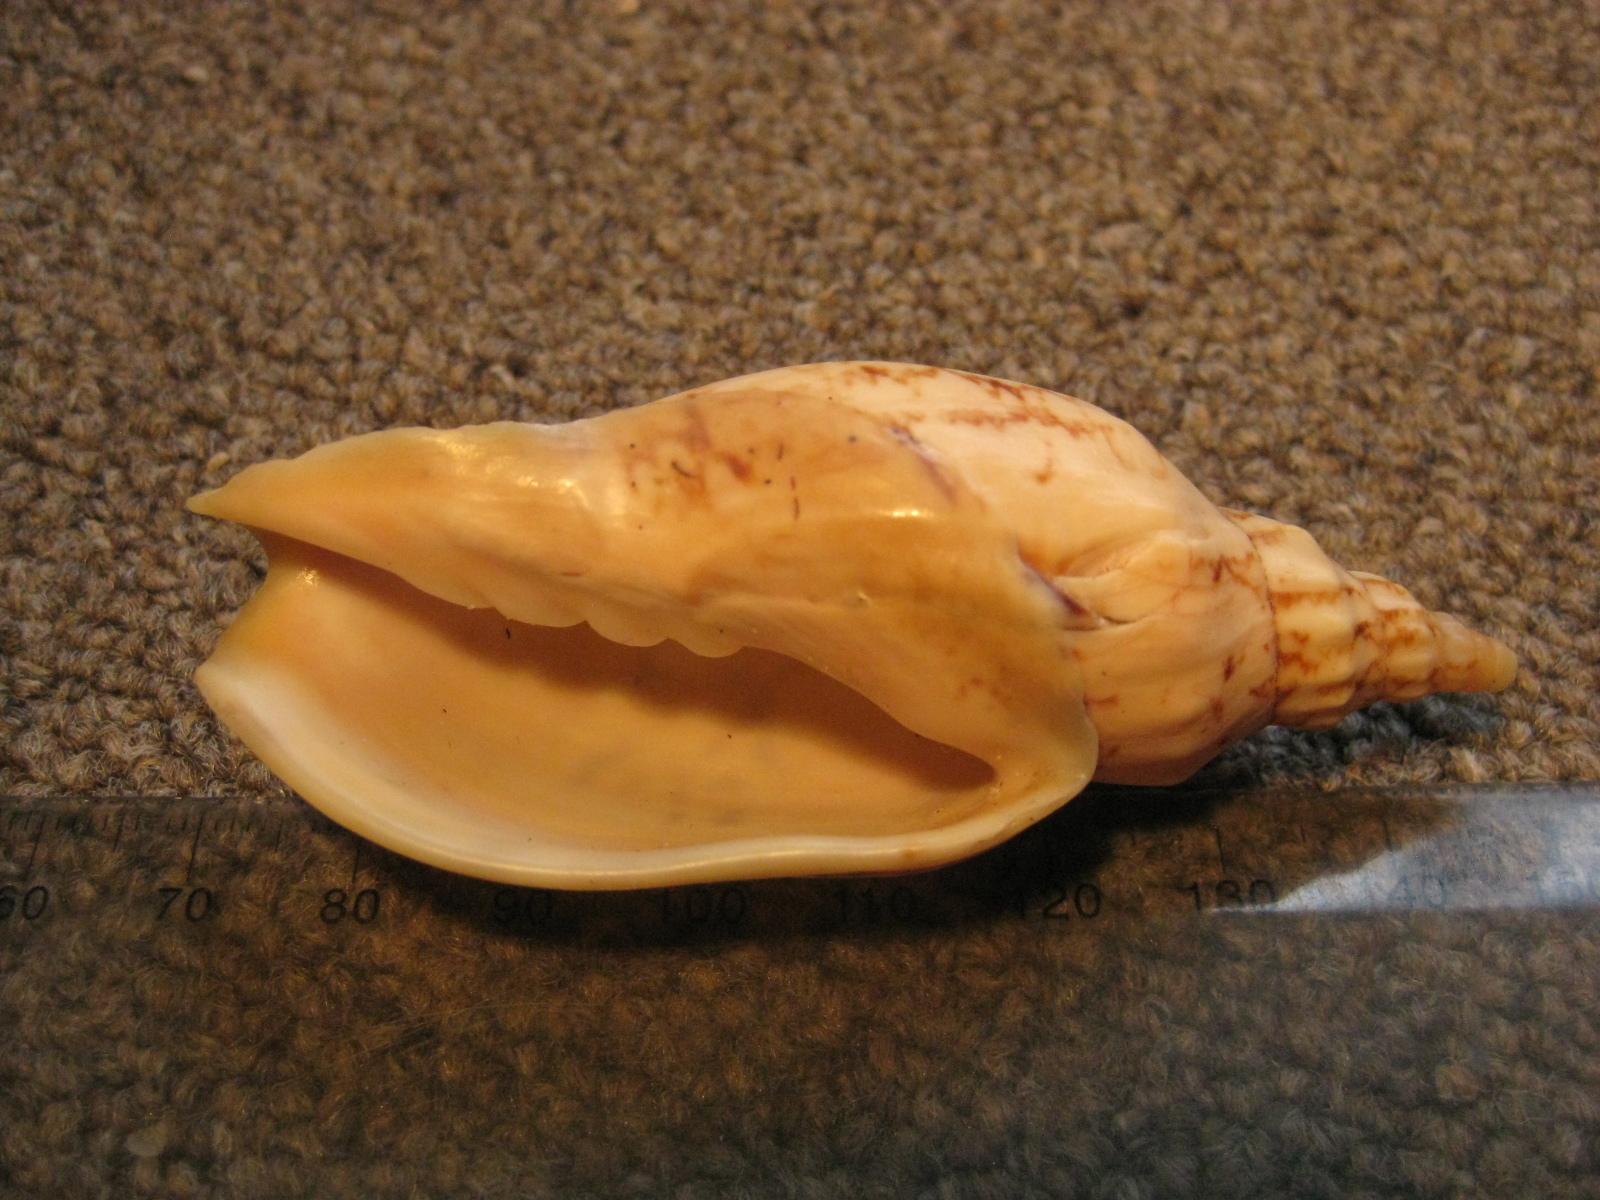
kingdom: Animalia
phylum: Mollusca
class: Gastropoda
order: Neogastropoda
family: Volutidae
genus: Alcithoe
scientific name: Alcithoe arabica
